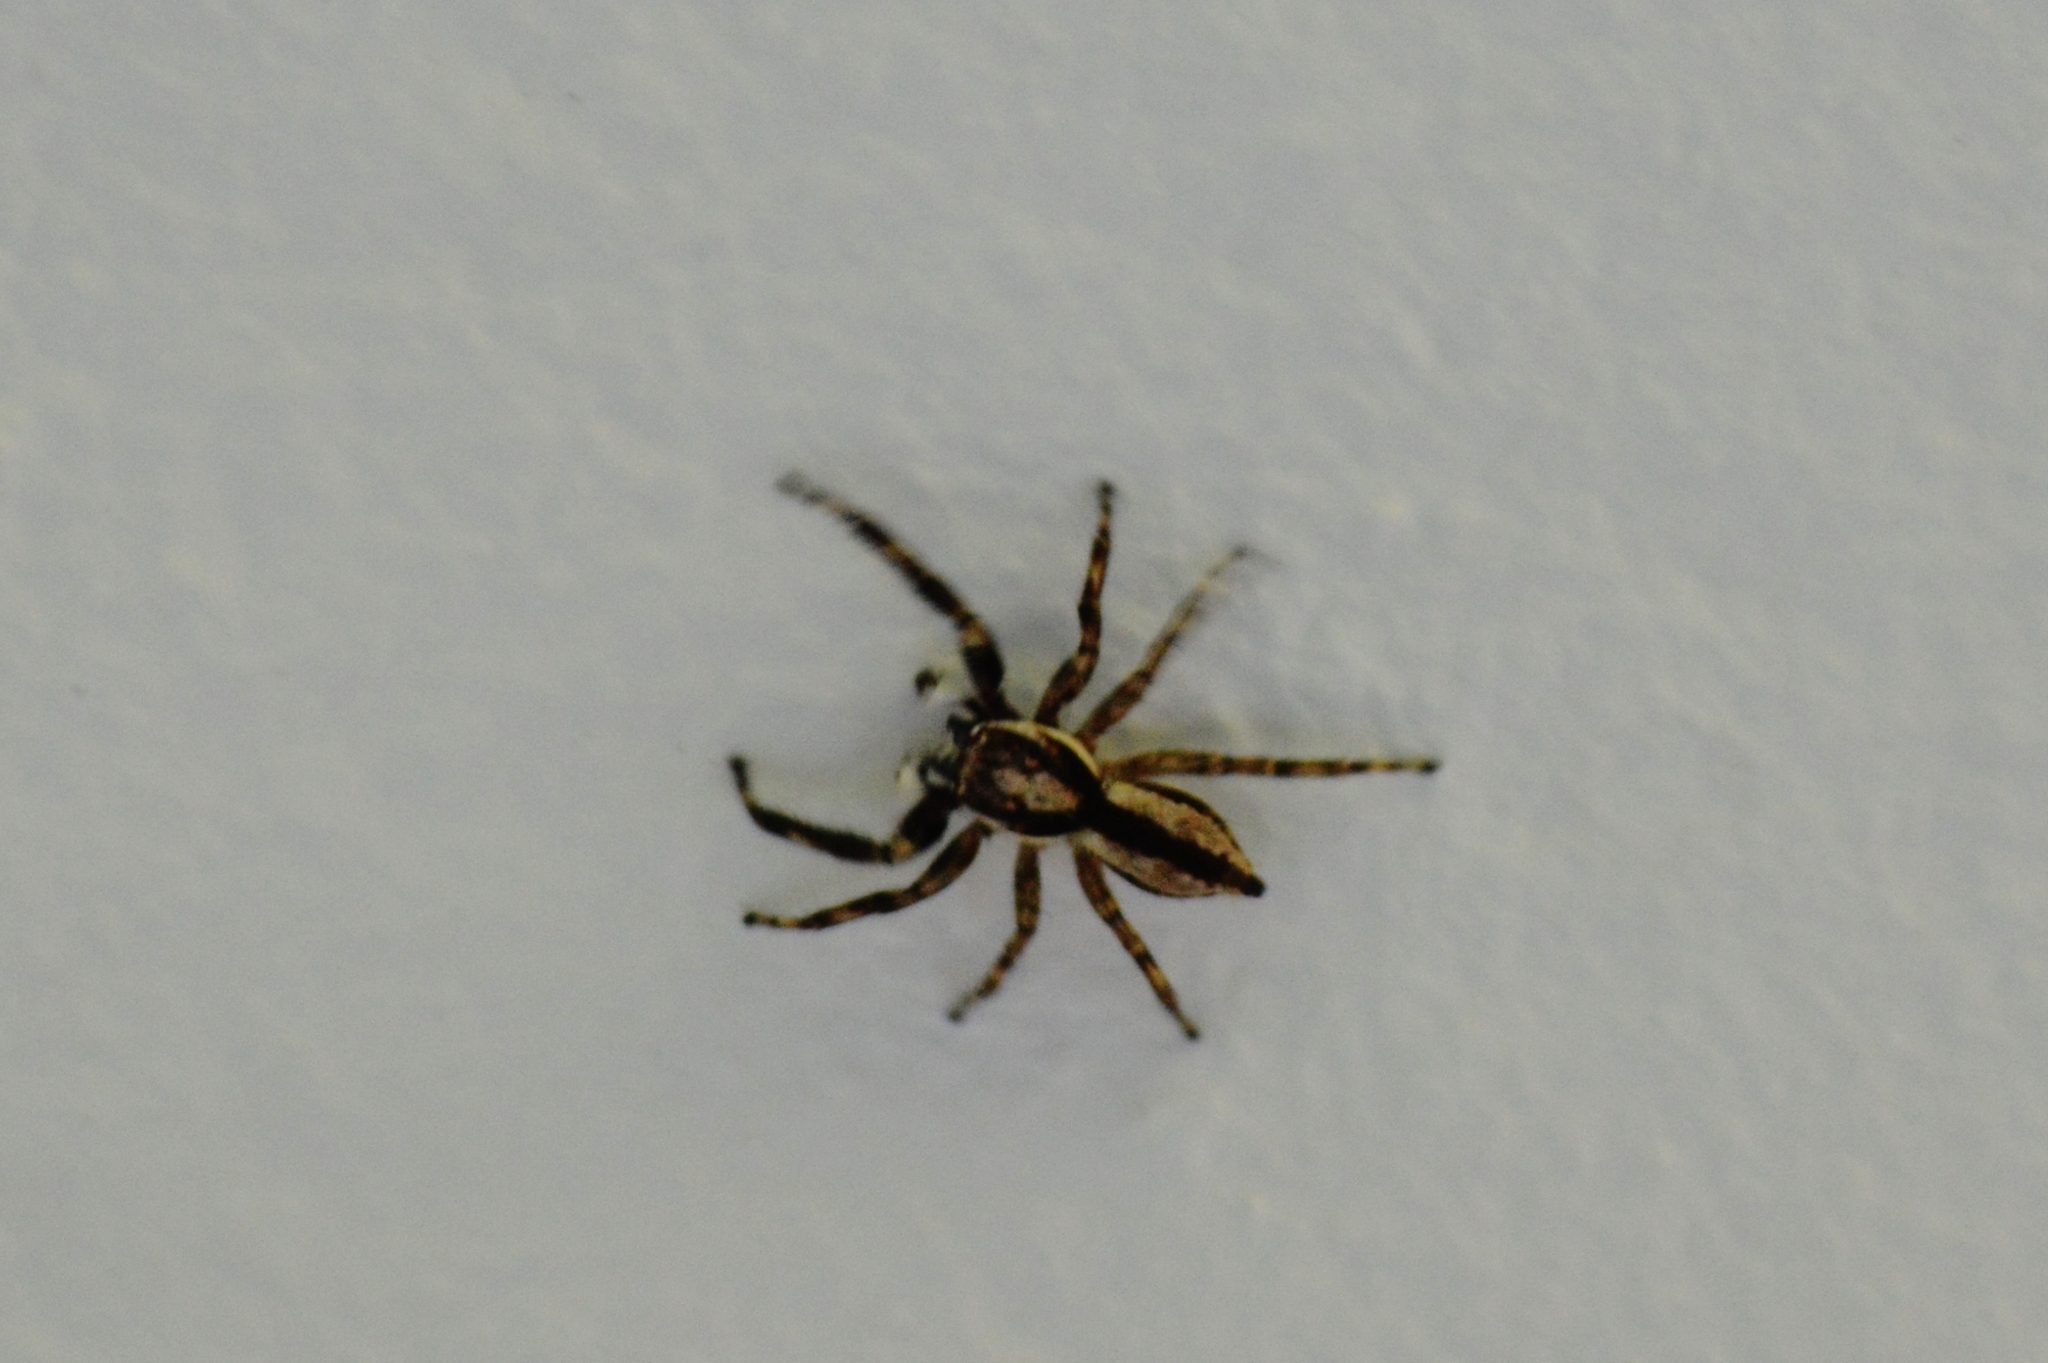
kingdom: Animalia
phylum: Arthropoda
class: Arachnida
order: Araneae
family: Salticidae
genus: Menemerus
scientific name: Menemerus bivittatus
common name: Gray wall jumper
